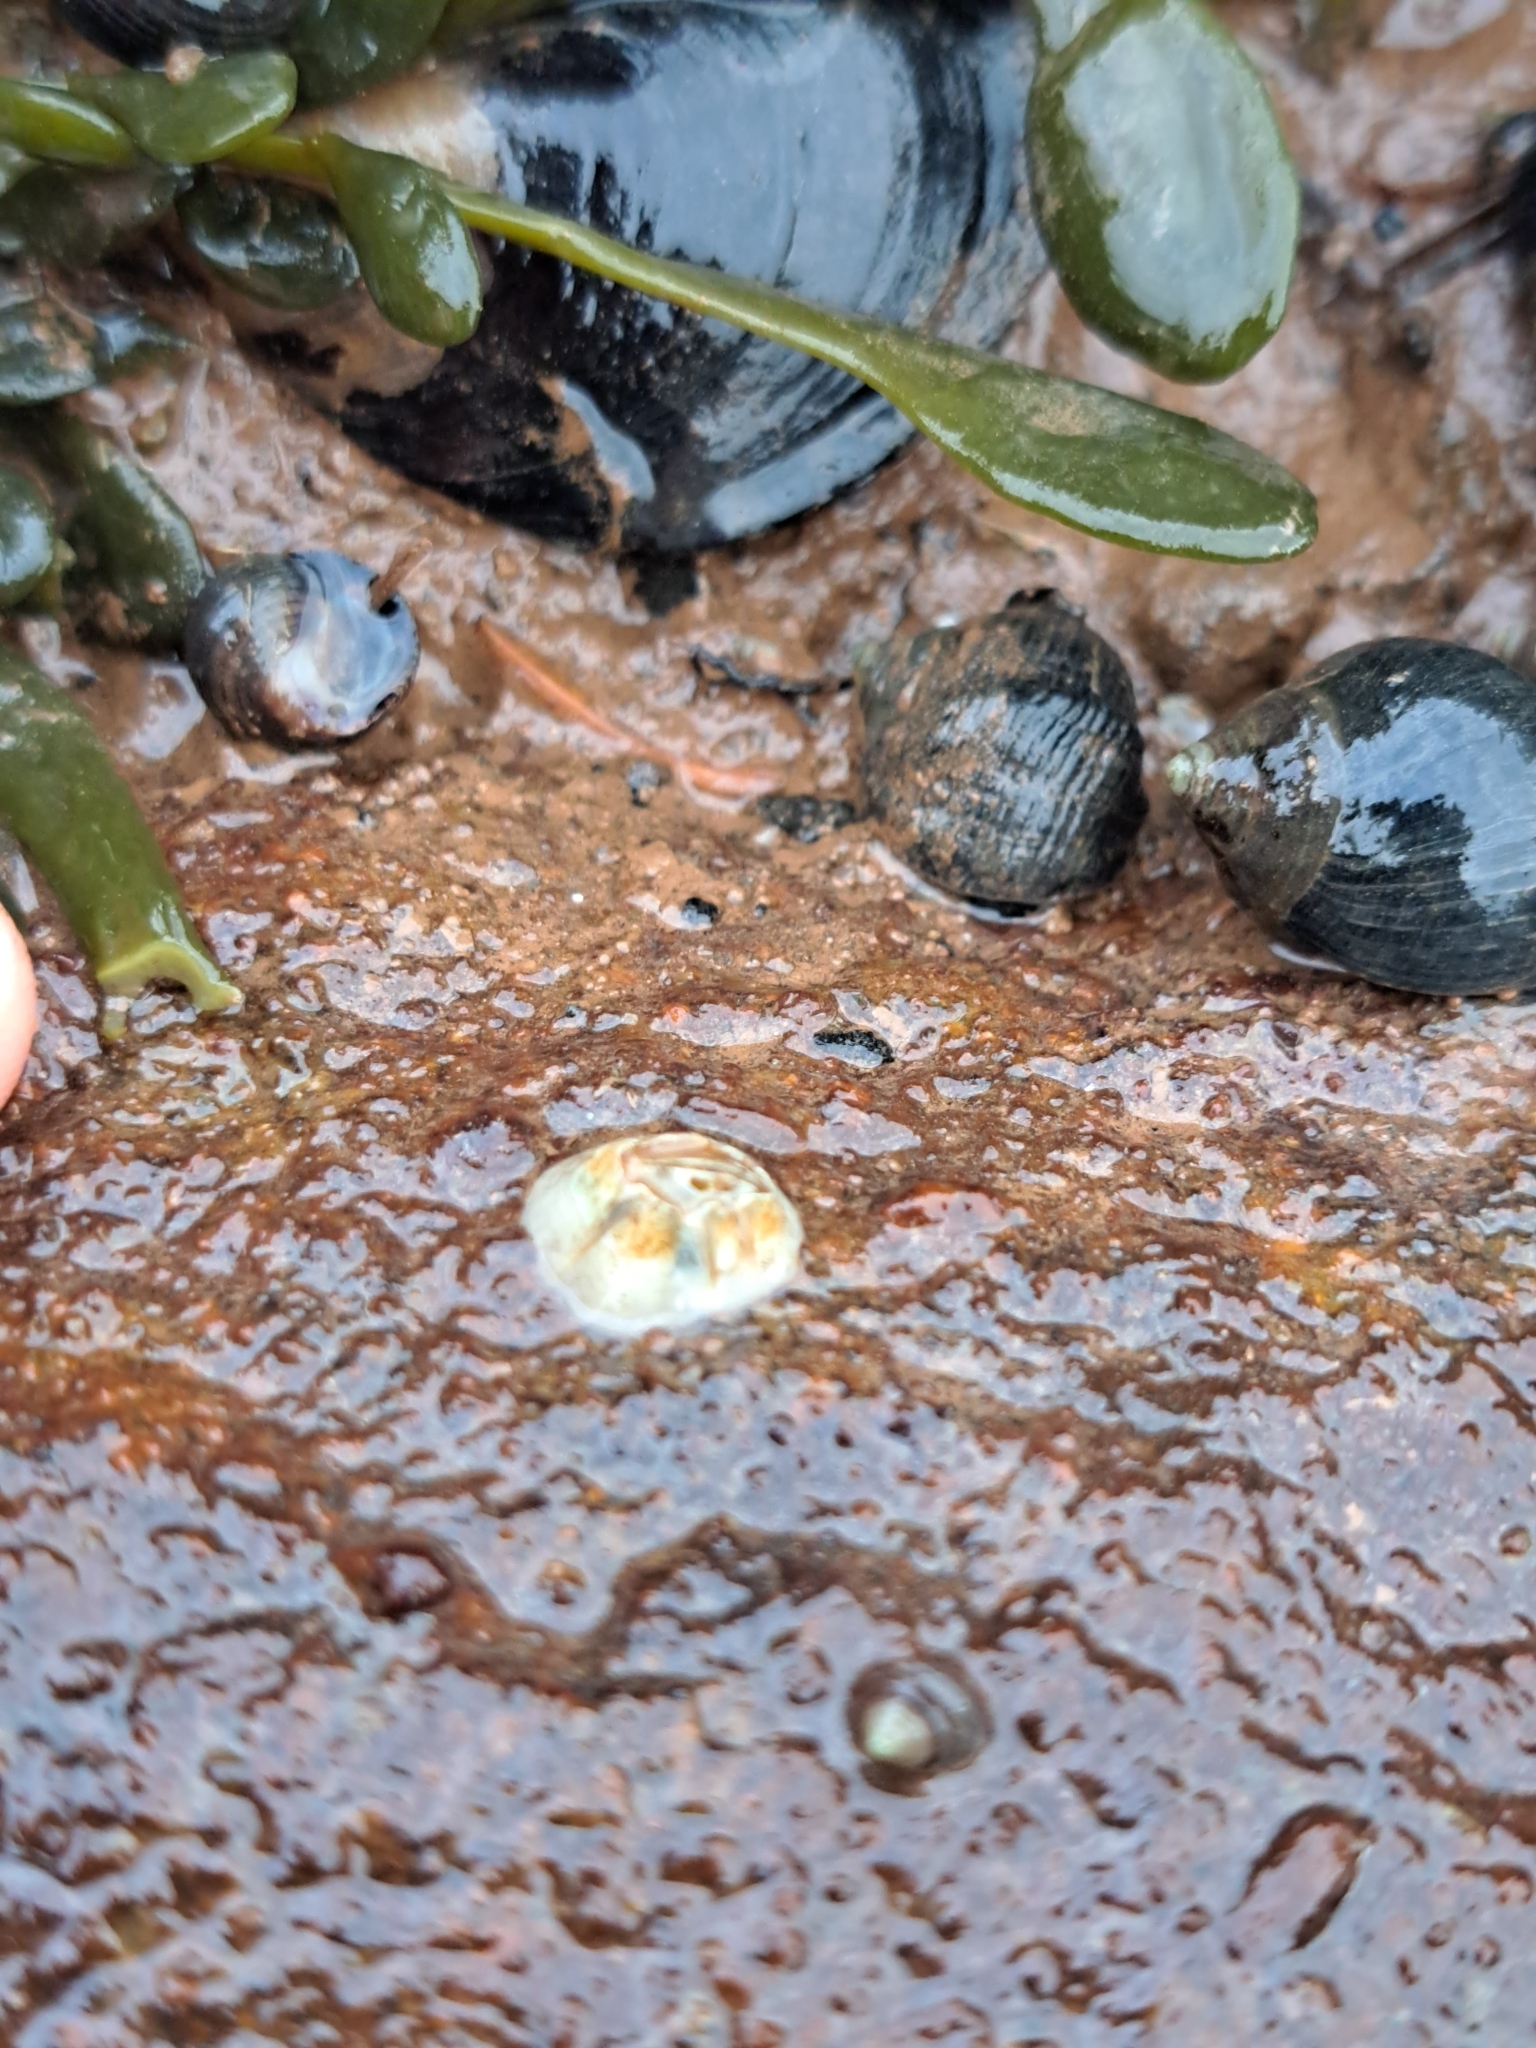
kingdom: Animalia
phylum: Arthropoda
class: Maxillopoda
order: Sessilia
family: Archaeobalanidae
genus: Semibalanus
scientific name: Semibalanus balanoides
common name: Acorn barnacle
